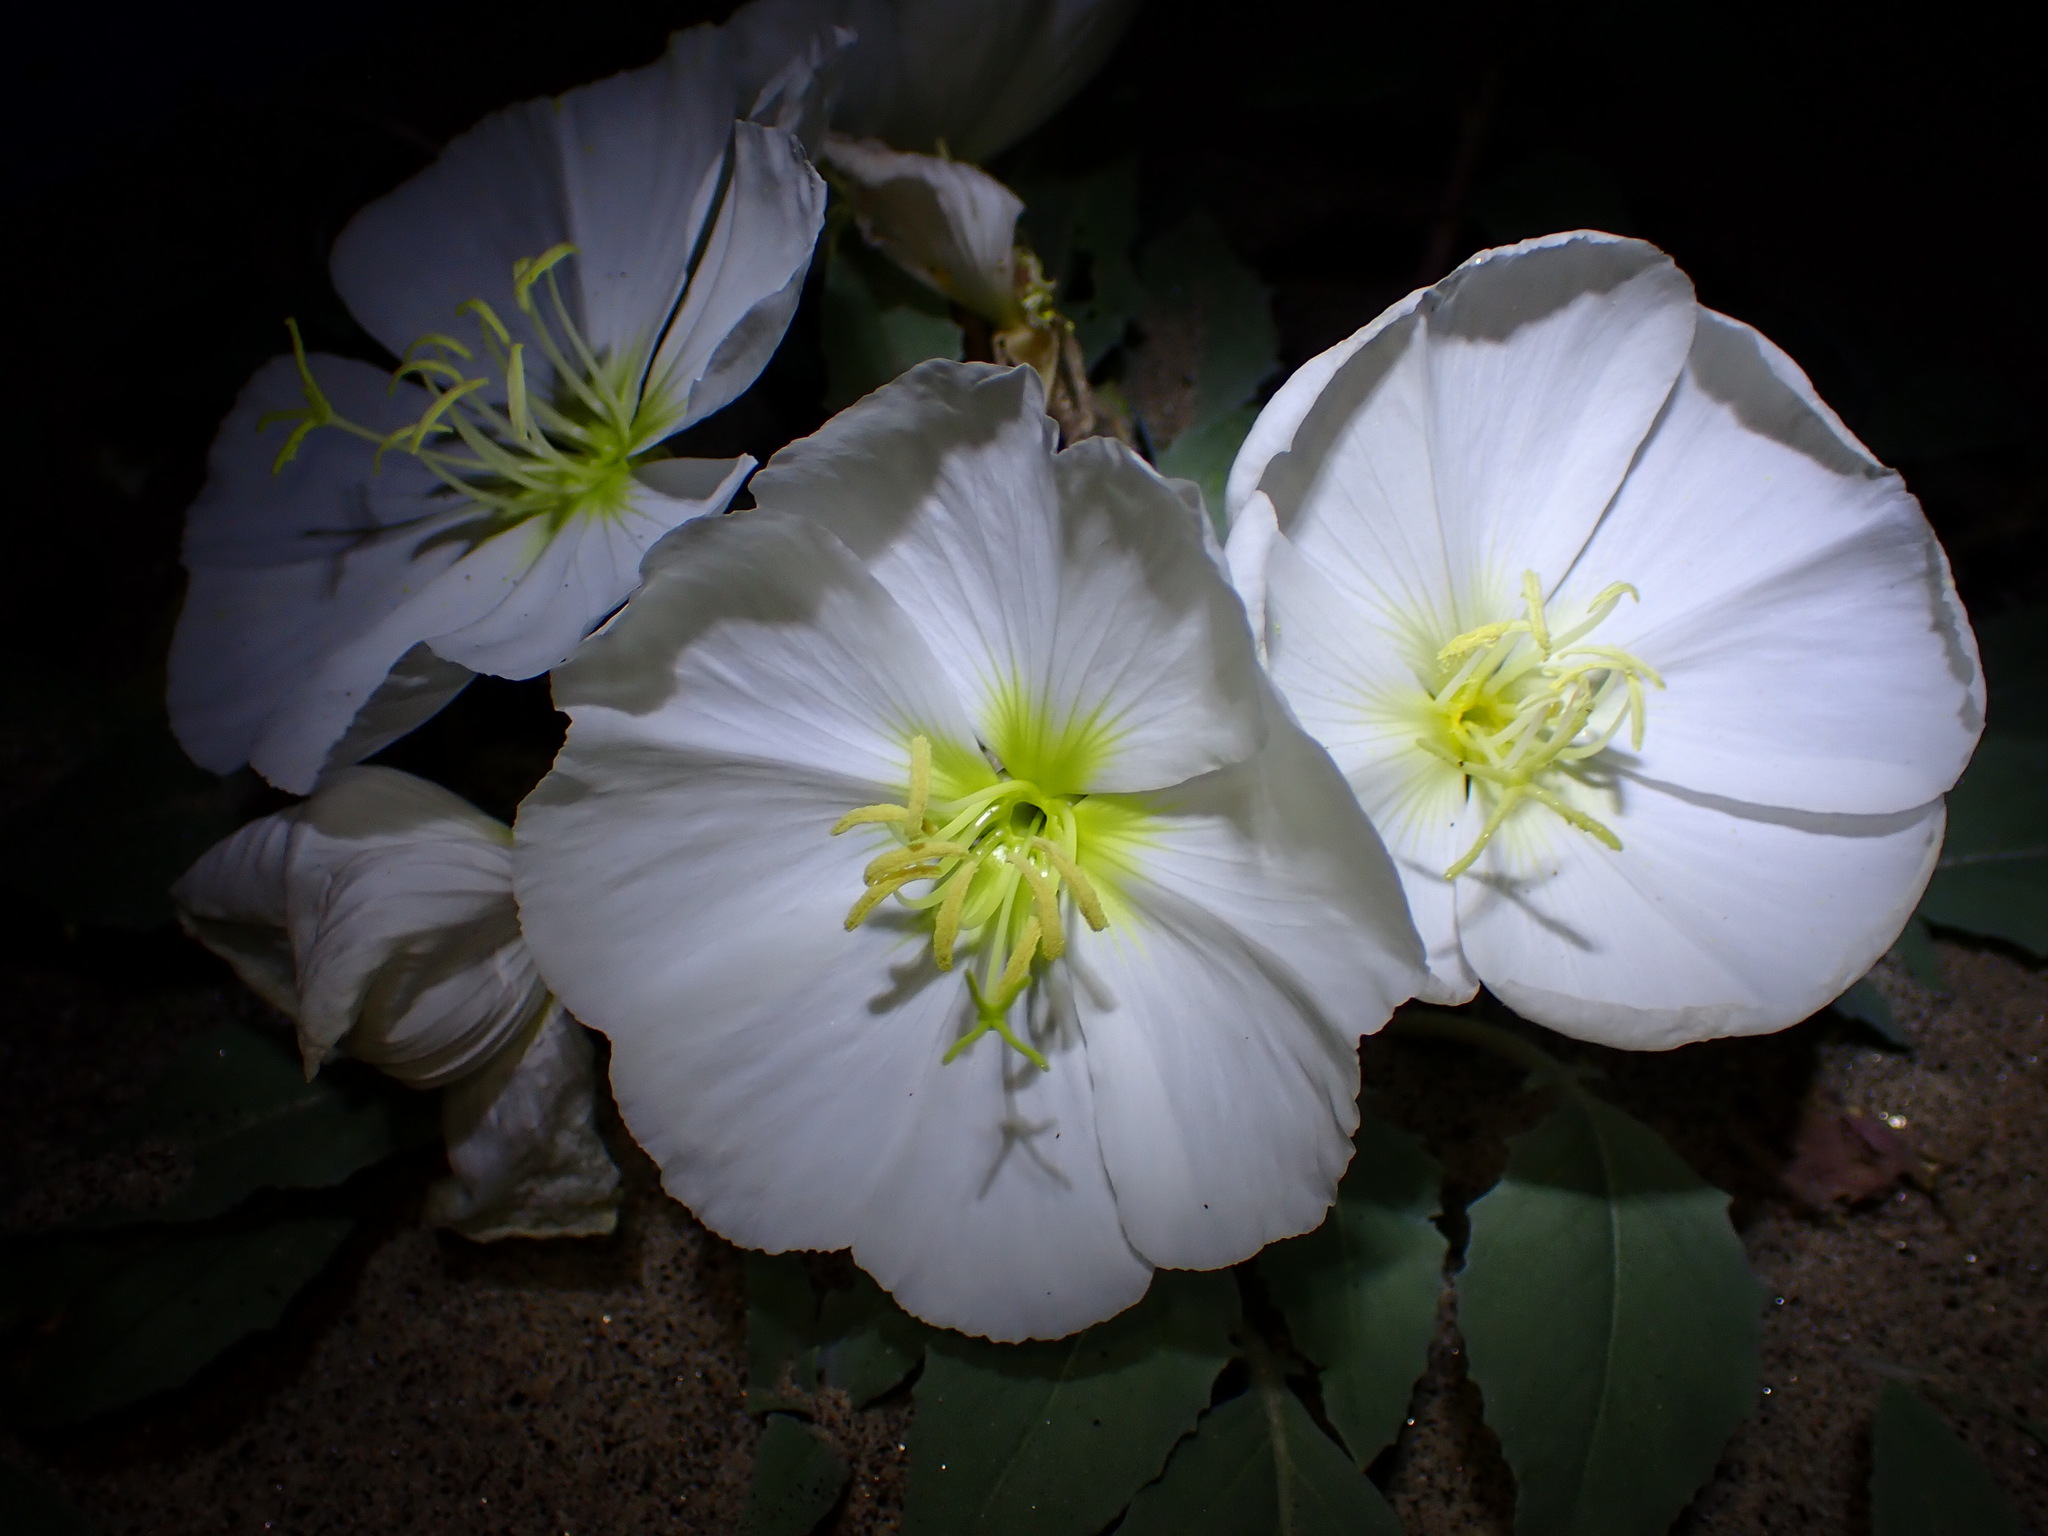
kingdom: Plantae
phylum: Tracheophyta
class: Magnoliopsida
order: Myrtales
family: Onagraceae
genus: Oenothera
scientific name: Oenothera deltoides
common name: Basket evening-primrose
